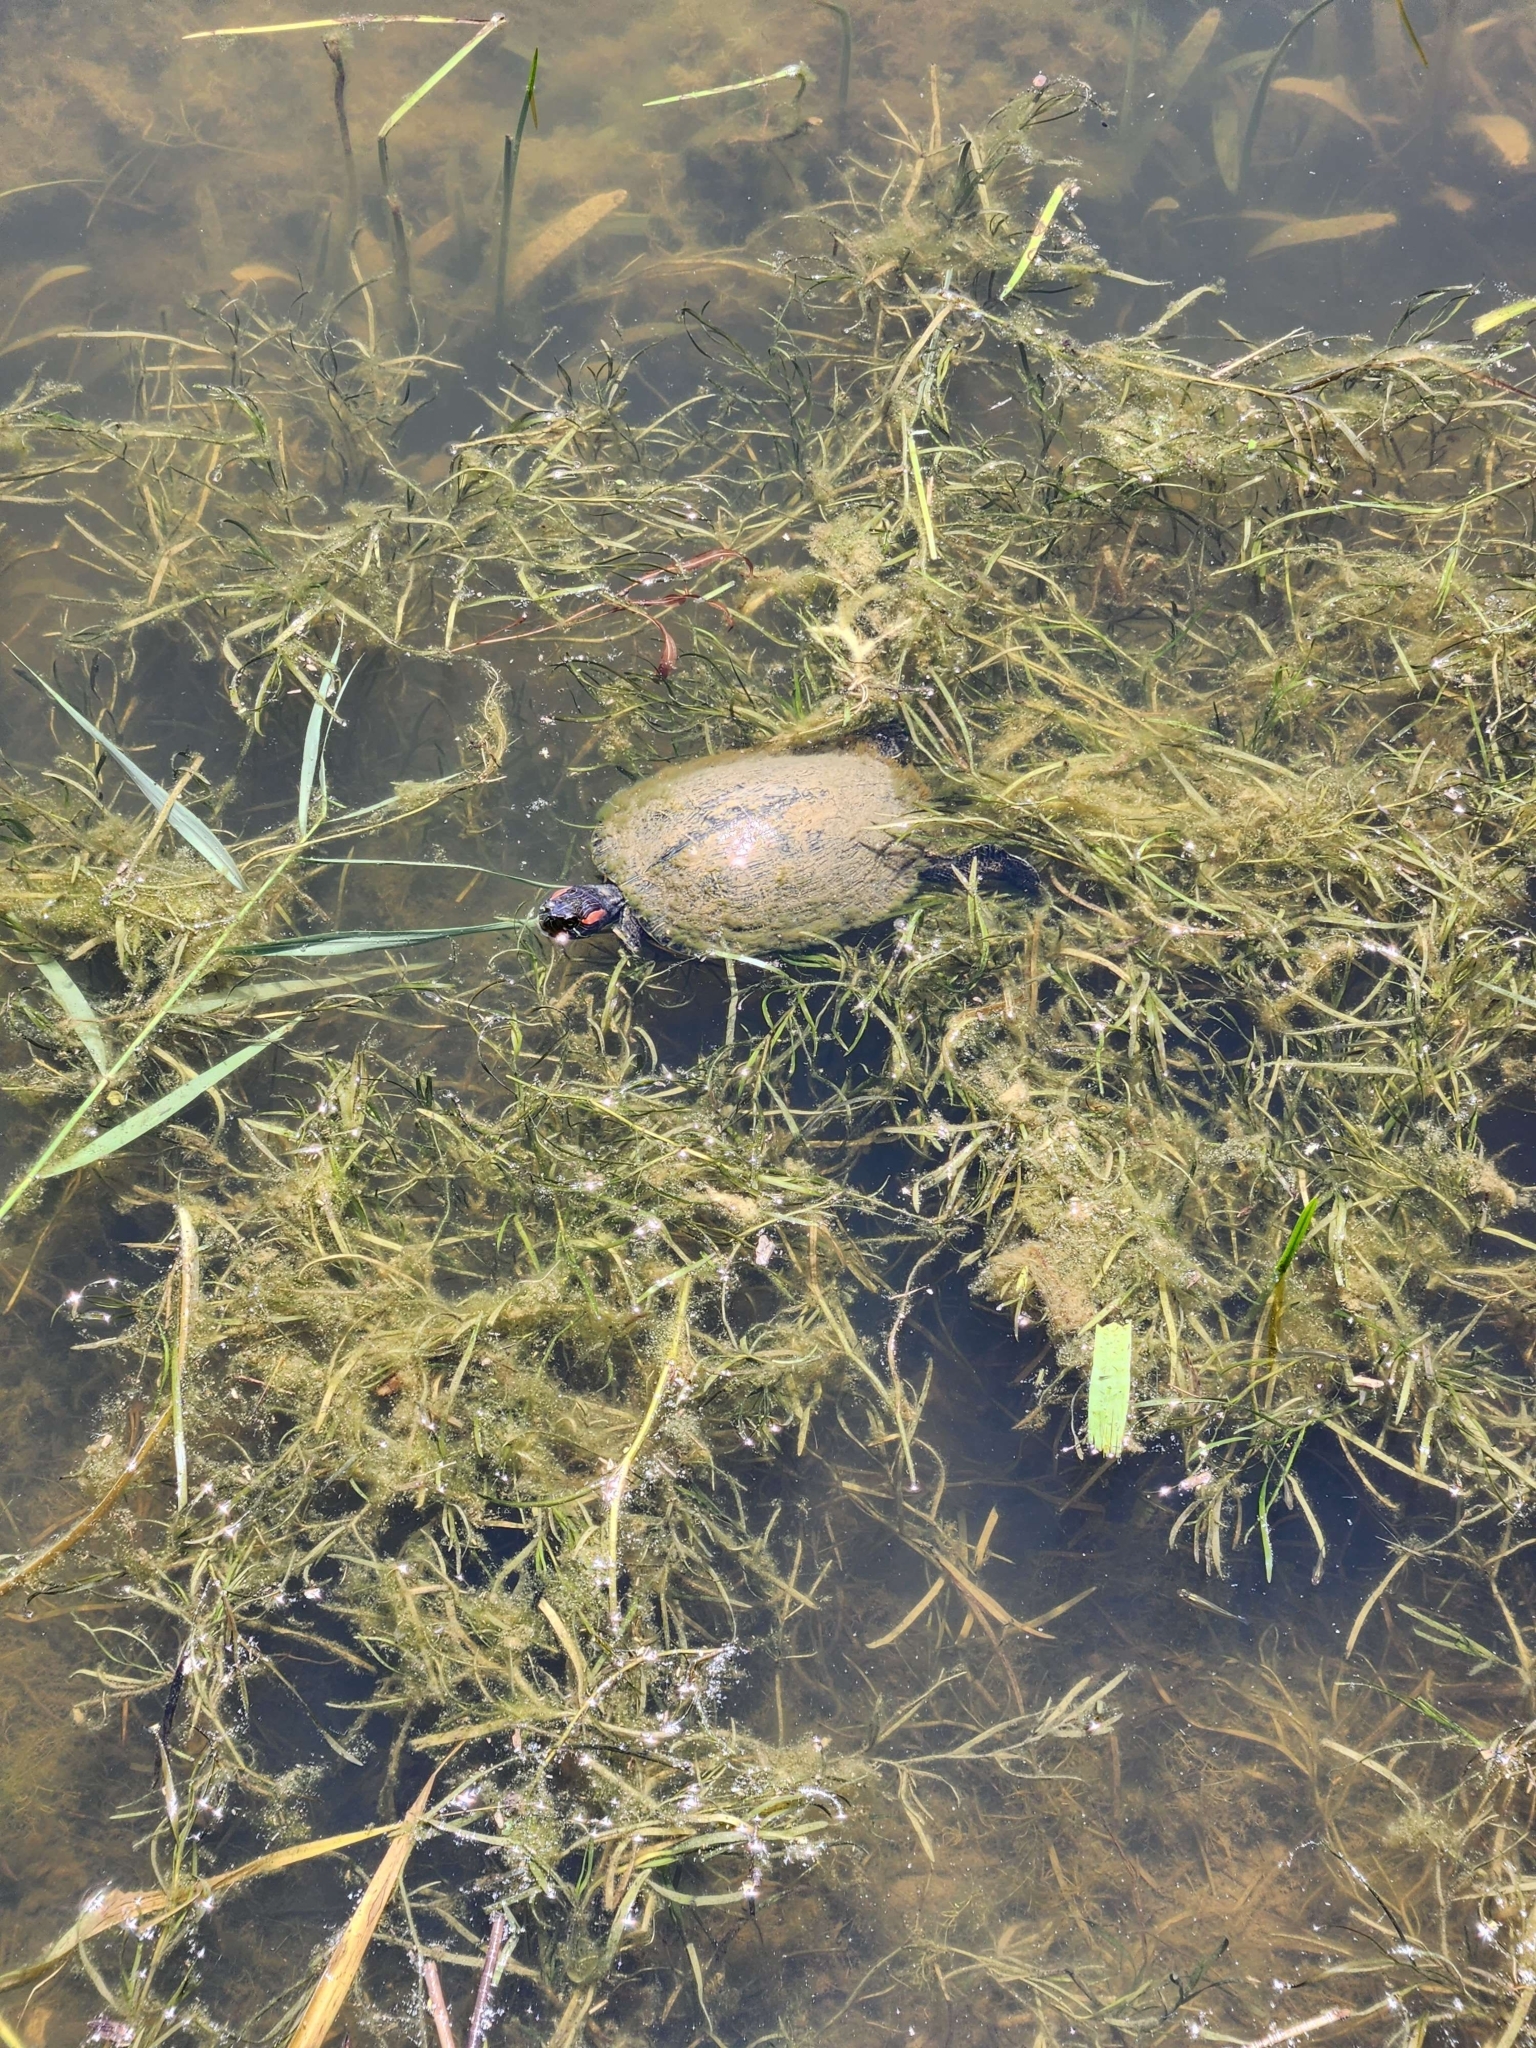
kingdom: Animalia
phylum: Chordata
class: Testudines
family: Emydidae
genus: Trachemys
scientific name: Trachemys scripta
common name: Slider
